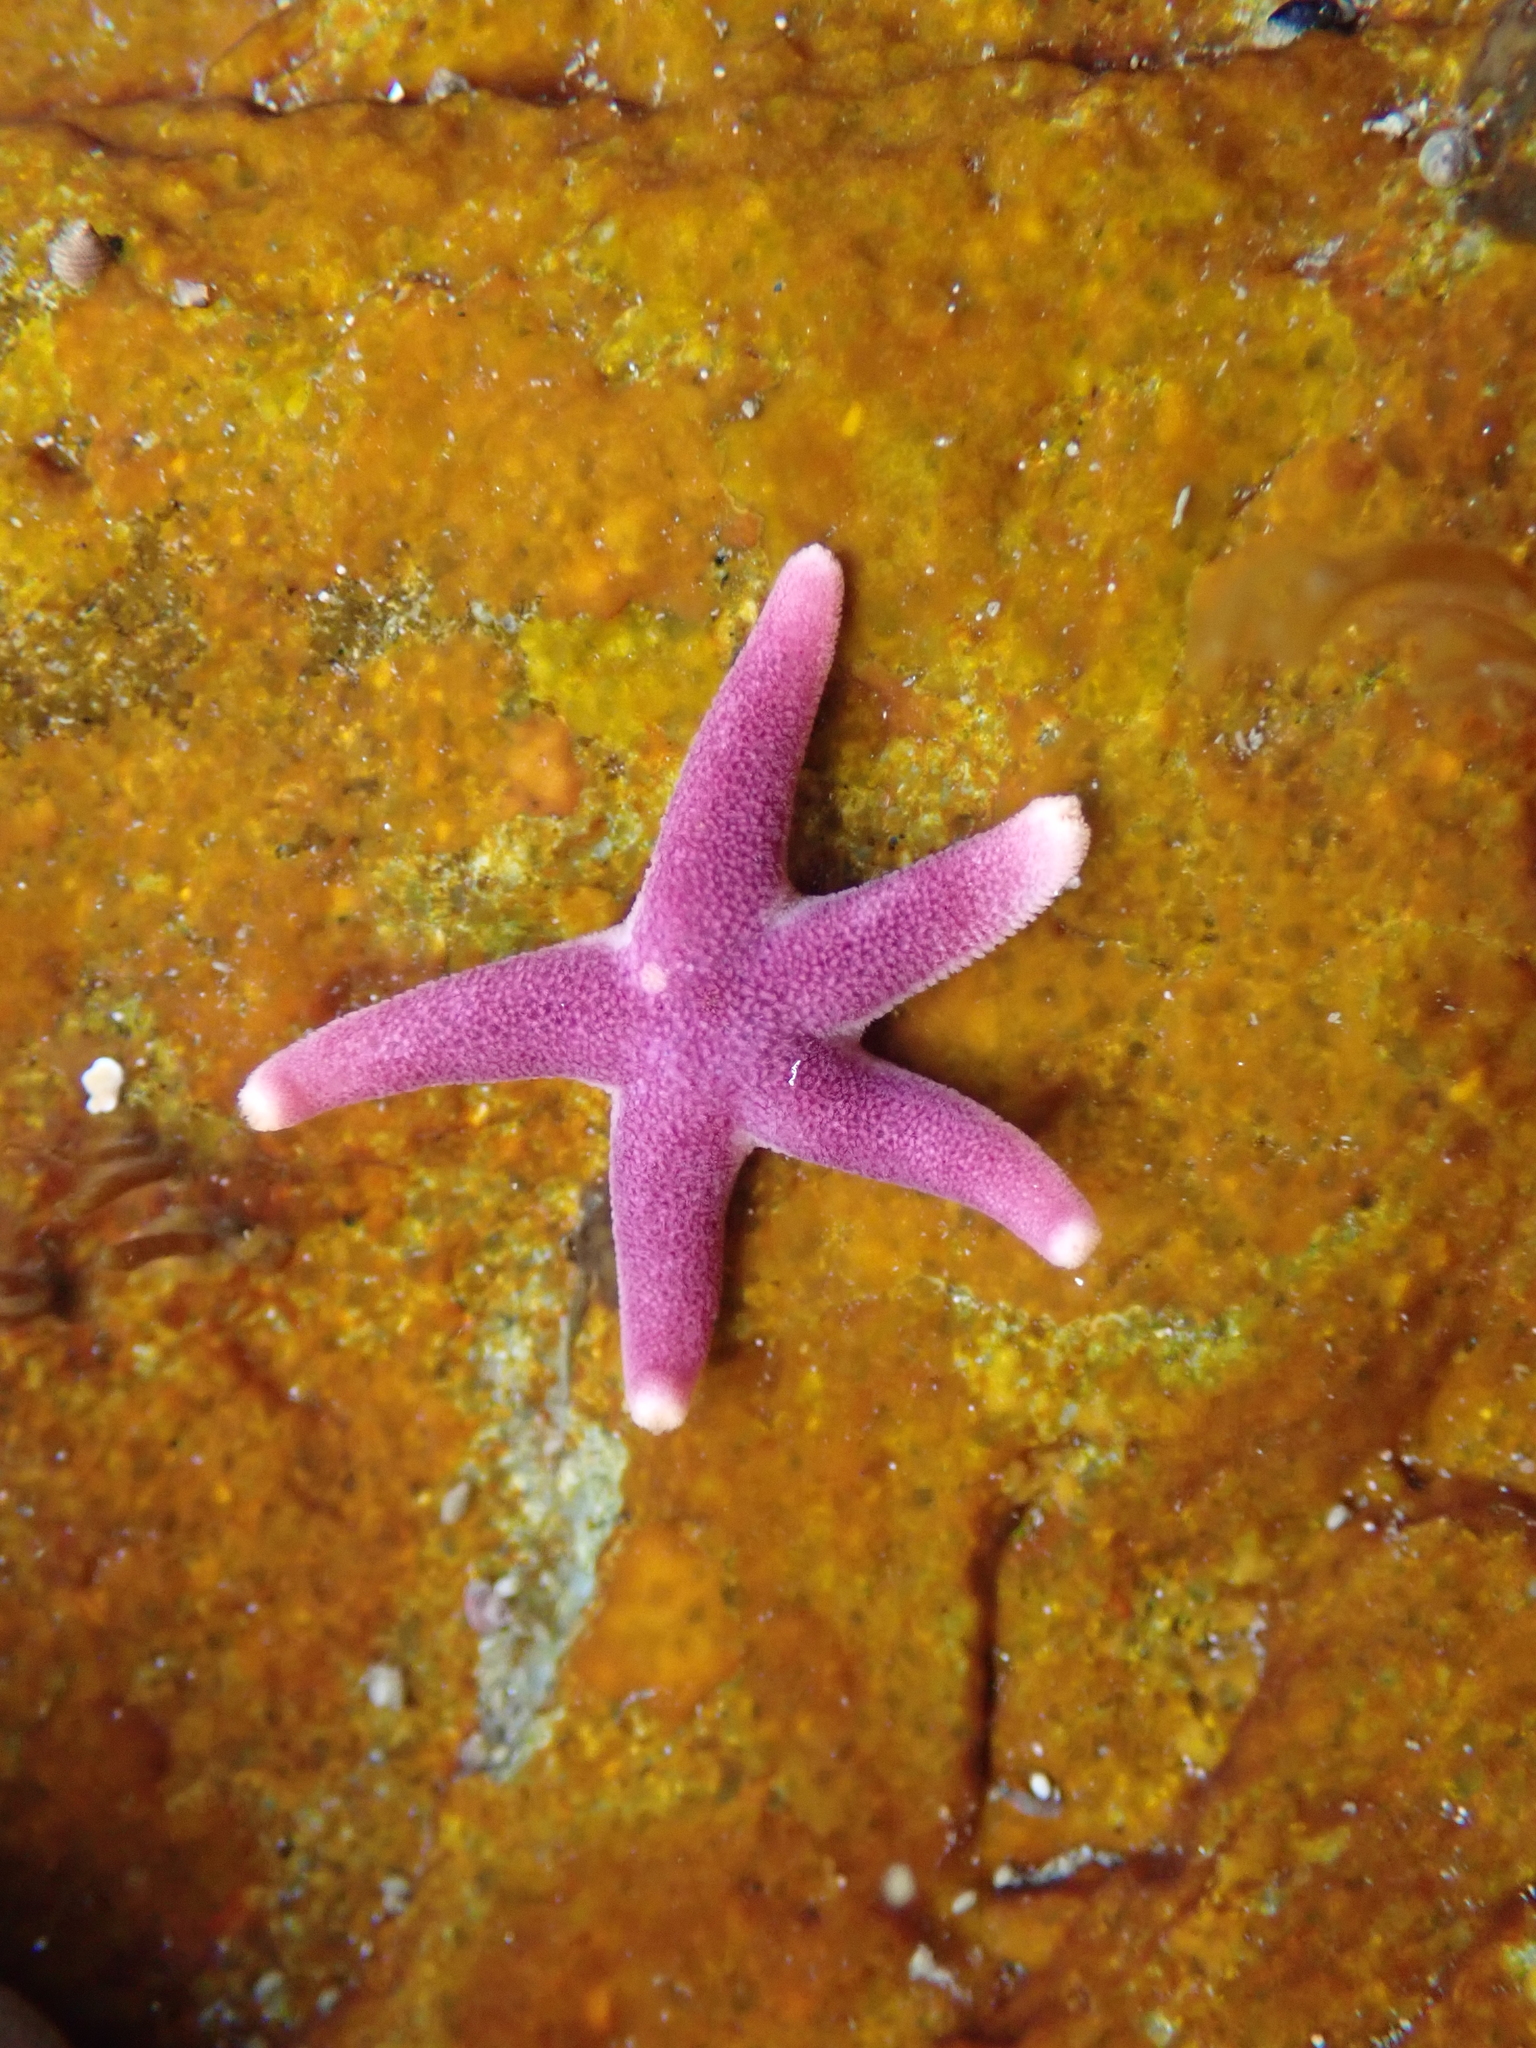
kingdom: Animalia
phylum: Echinodermata
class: Asteroidea
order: Spinulosida
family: Echinasteridae
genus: Henricia
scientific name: Henricia sanguinolenta
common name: Blood star
